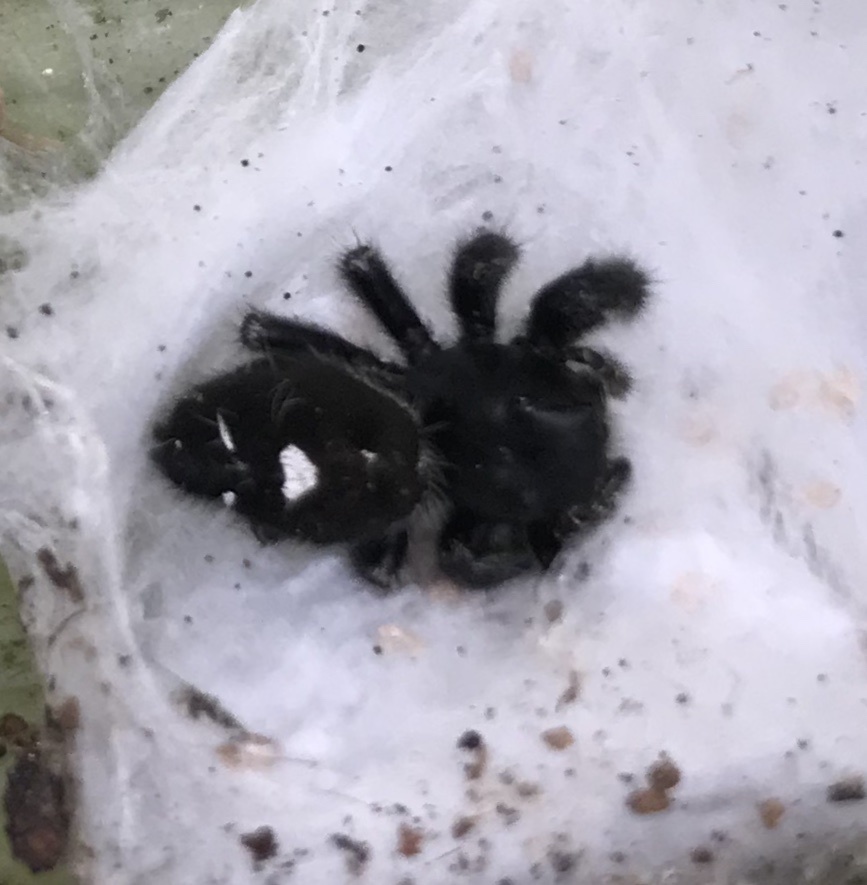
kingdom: Animalia
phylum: Arthropoda
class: Arachnida
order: Araneae
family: Salticidae
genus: Phidippus
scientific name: Phidippus audax
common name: Bold jumper
